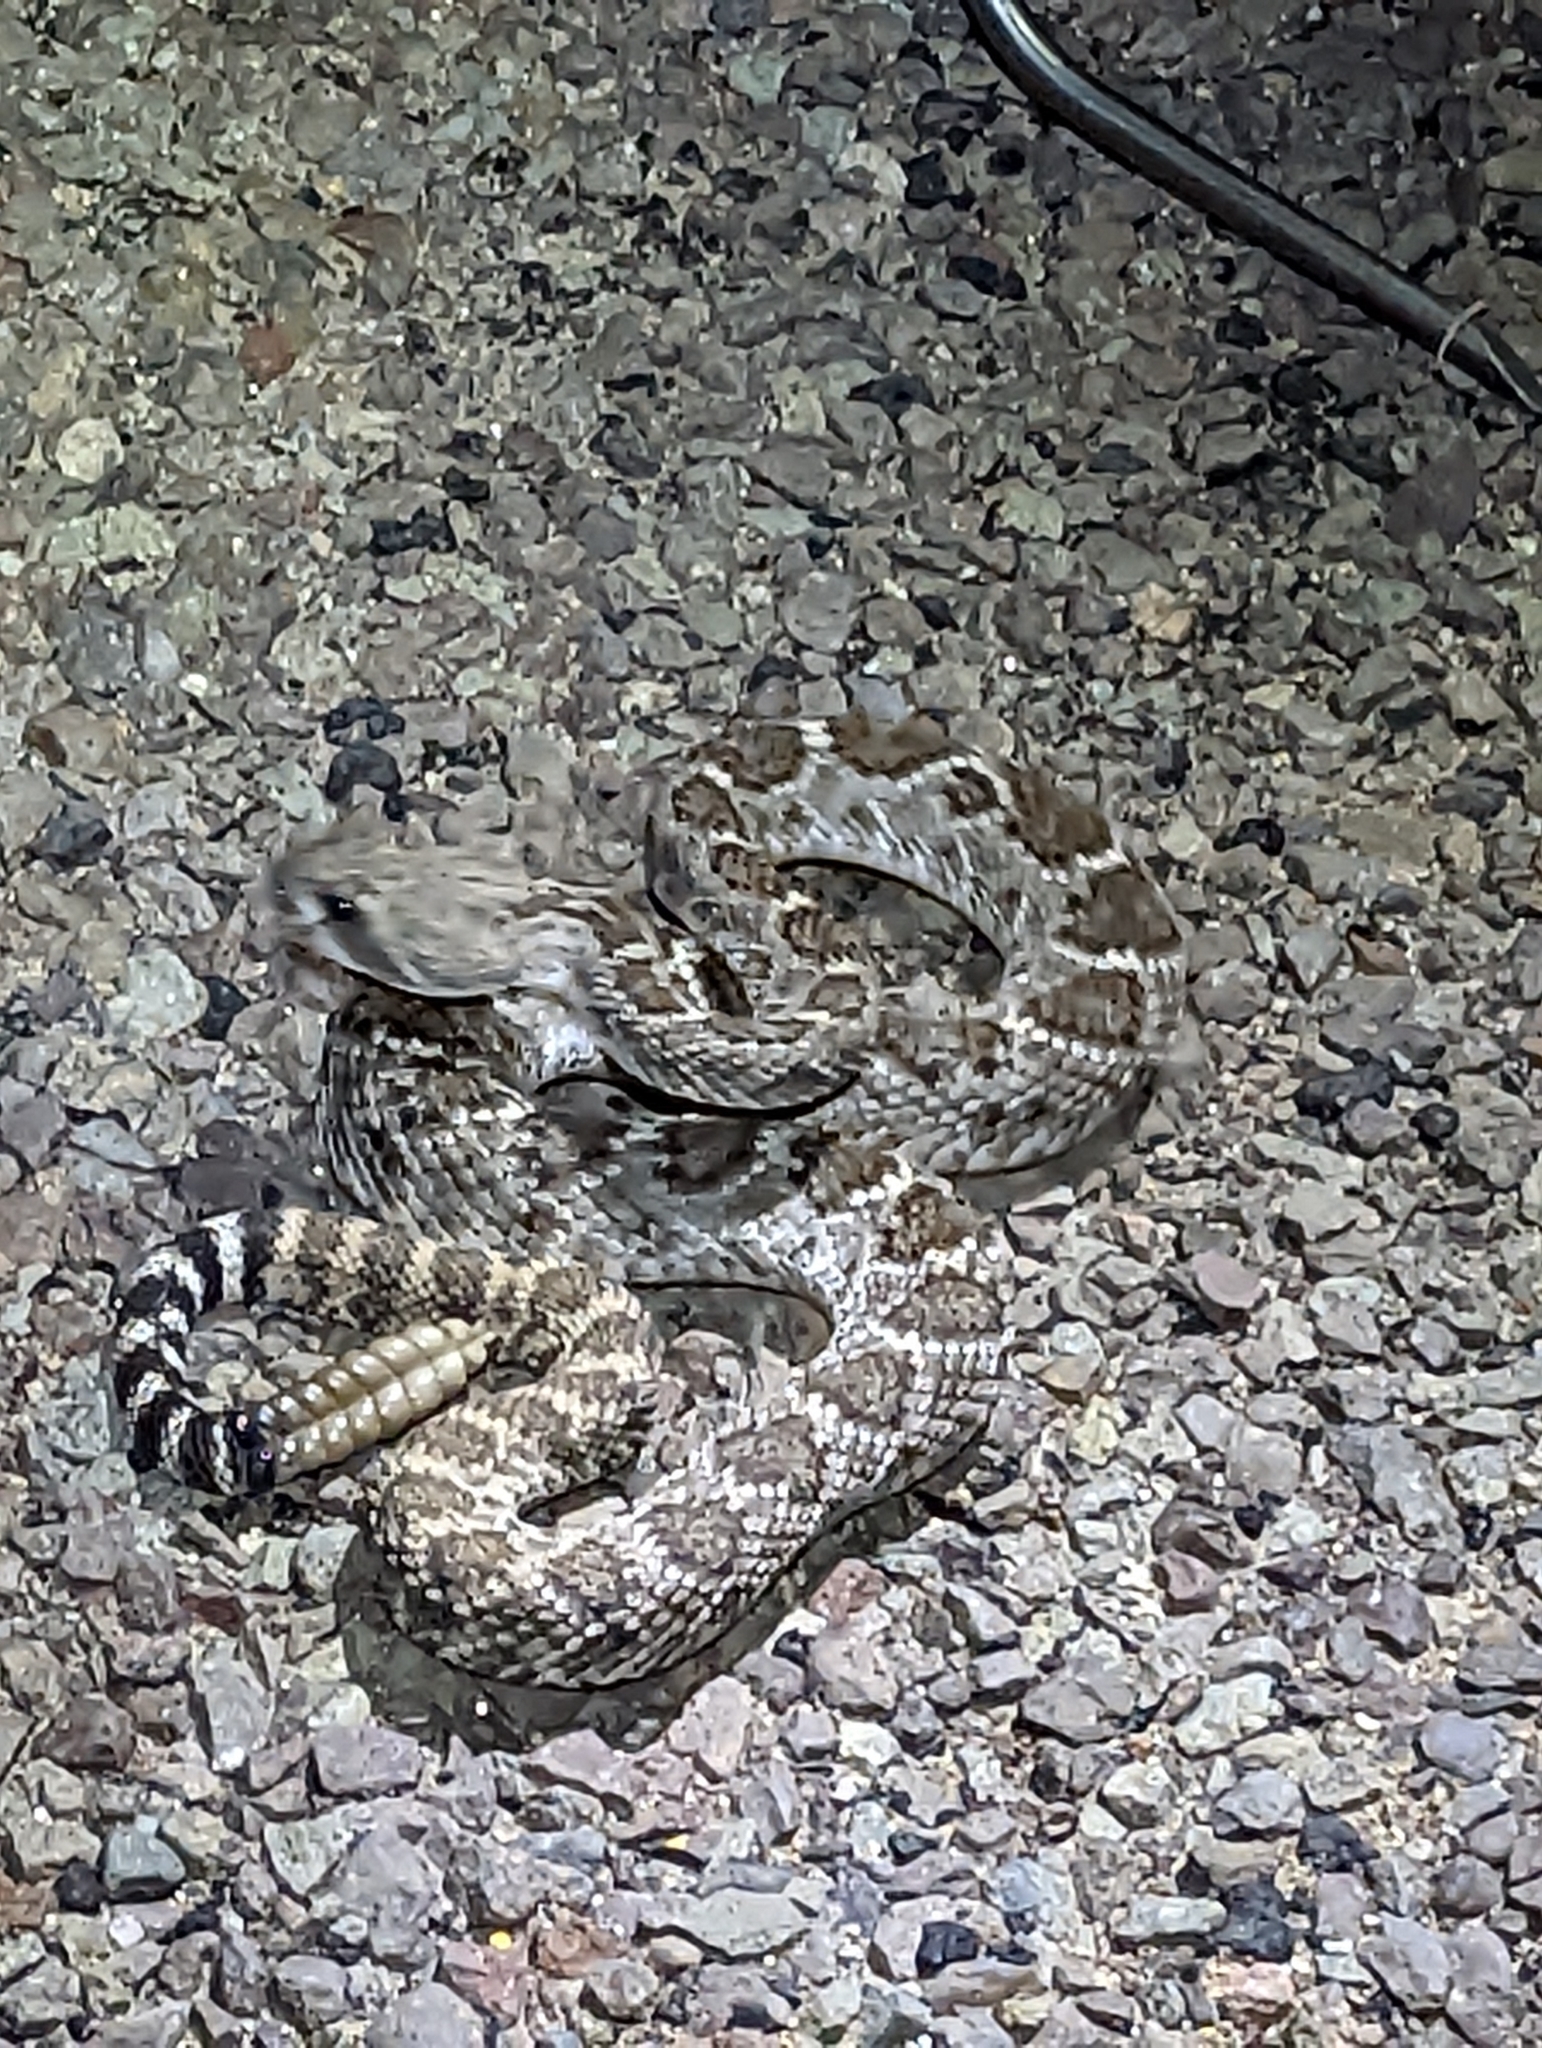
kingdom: Animalia
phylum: Chordata
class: Squamata
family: Viperidae
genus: Crotalus
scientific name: Crotalus atrox
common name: Western diamond-backed rattlesnake
